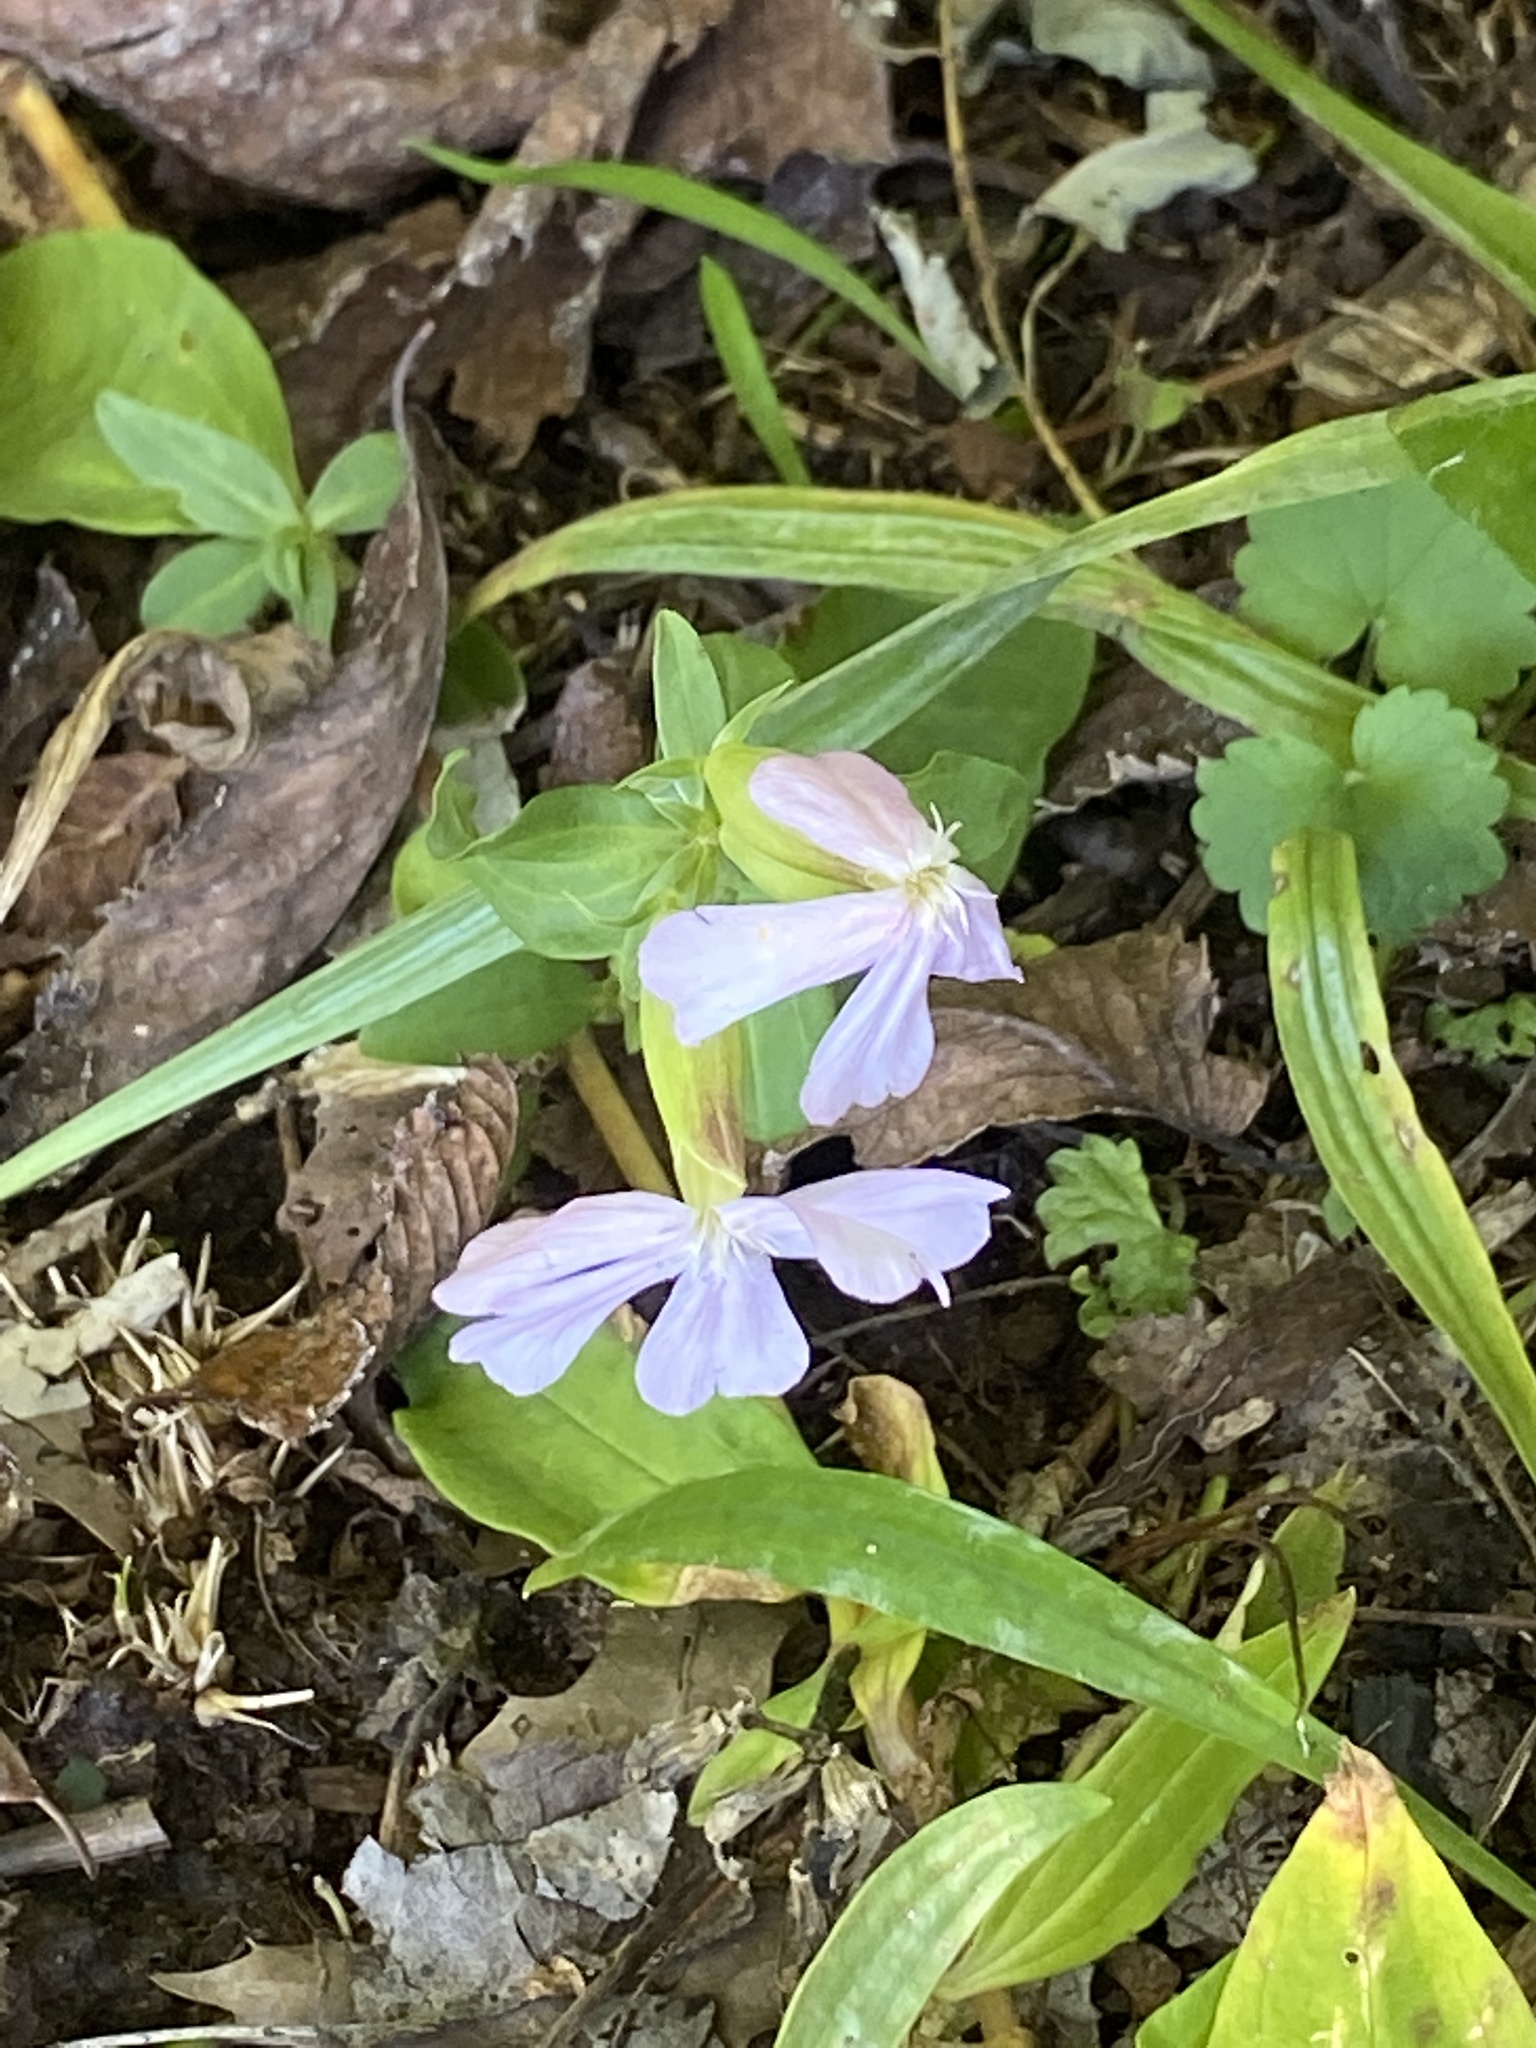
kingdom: Plantae
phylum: Tracheophyta
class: Magnoliopsida
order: Caryophyllales
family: Caryophyllaceae
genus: Saponaria
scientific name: Saponaria officinalis
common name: Soapwort
